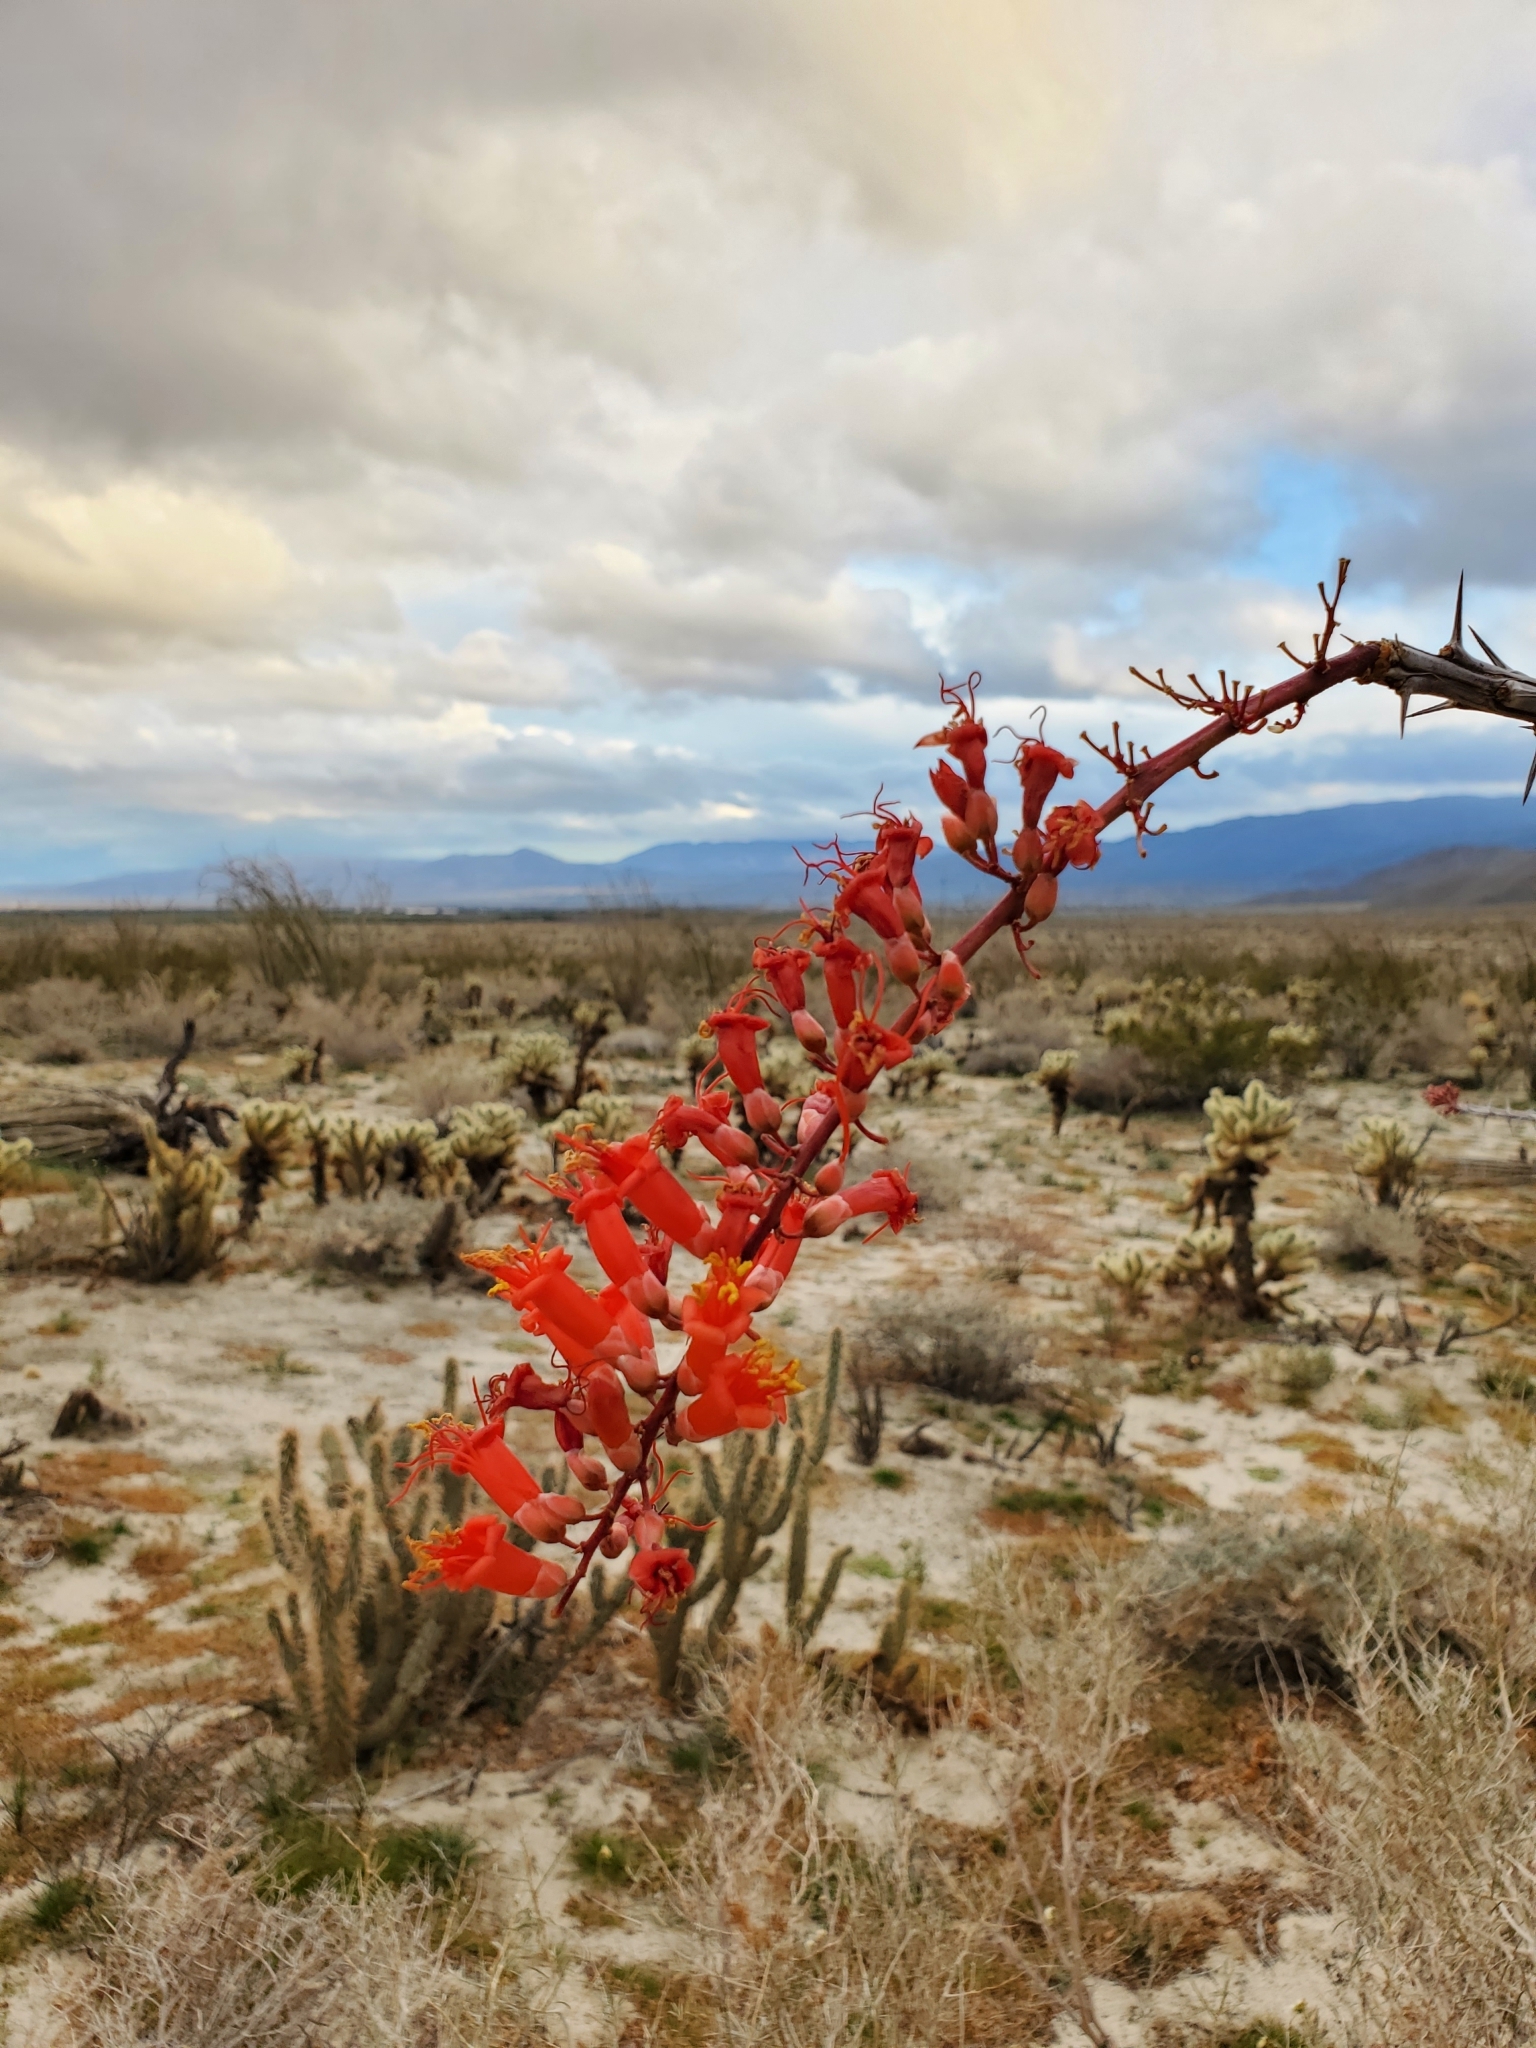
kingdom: Plantae
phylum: Tracheophyta
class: Magnoliopsida
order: Ericales
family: Fouquieriaceae
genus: Fouquieria
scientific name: Fouquieria splendens
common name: Vine-cactus
